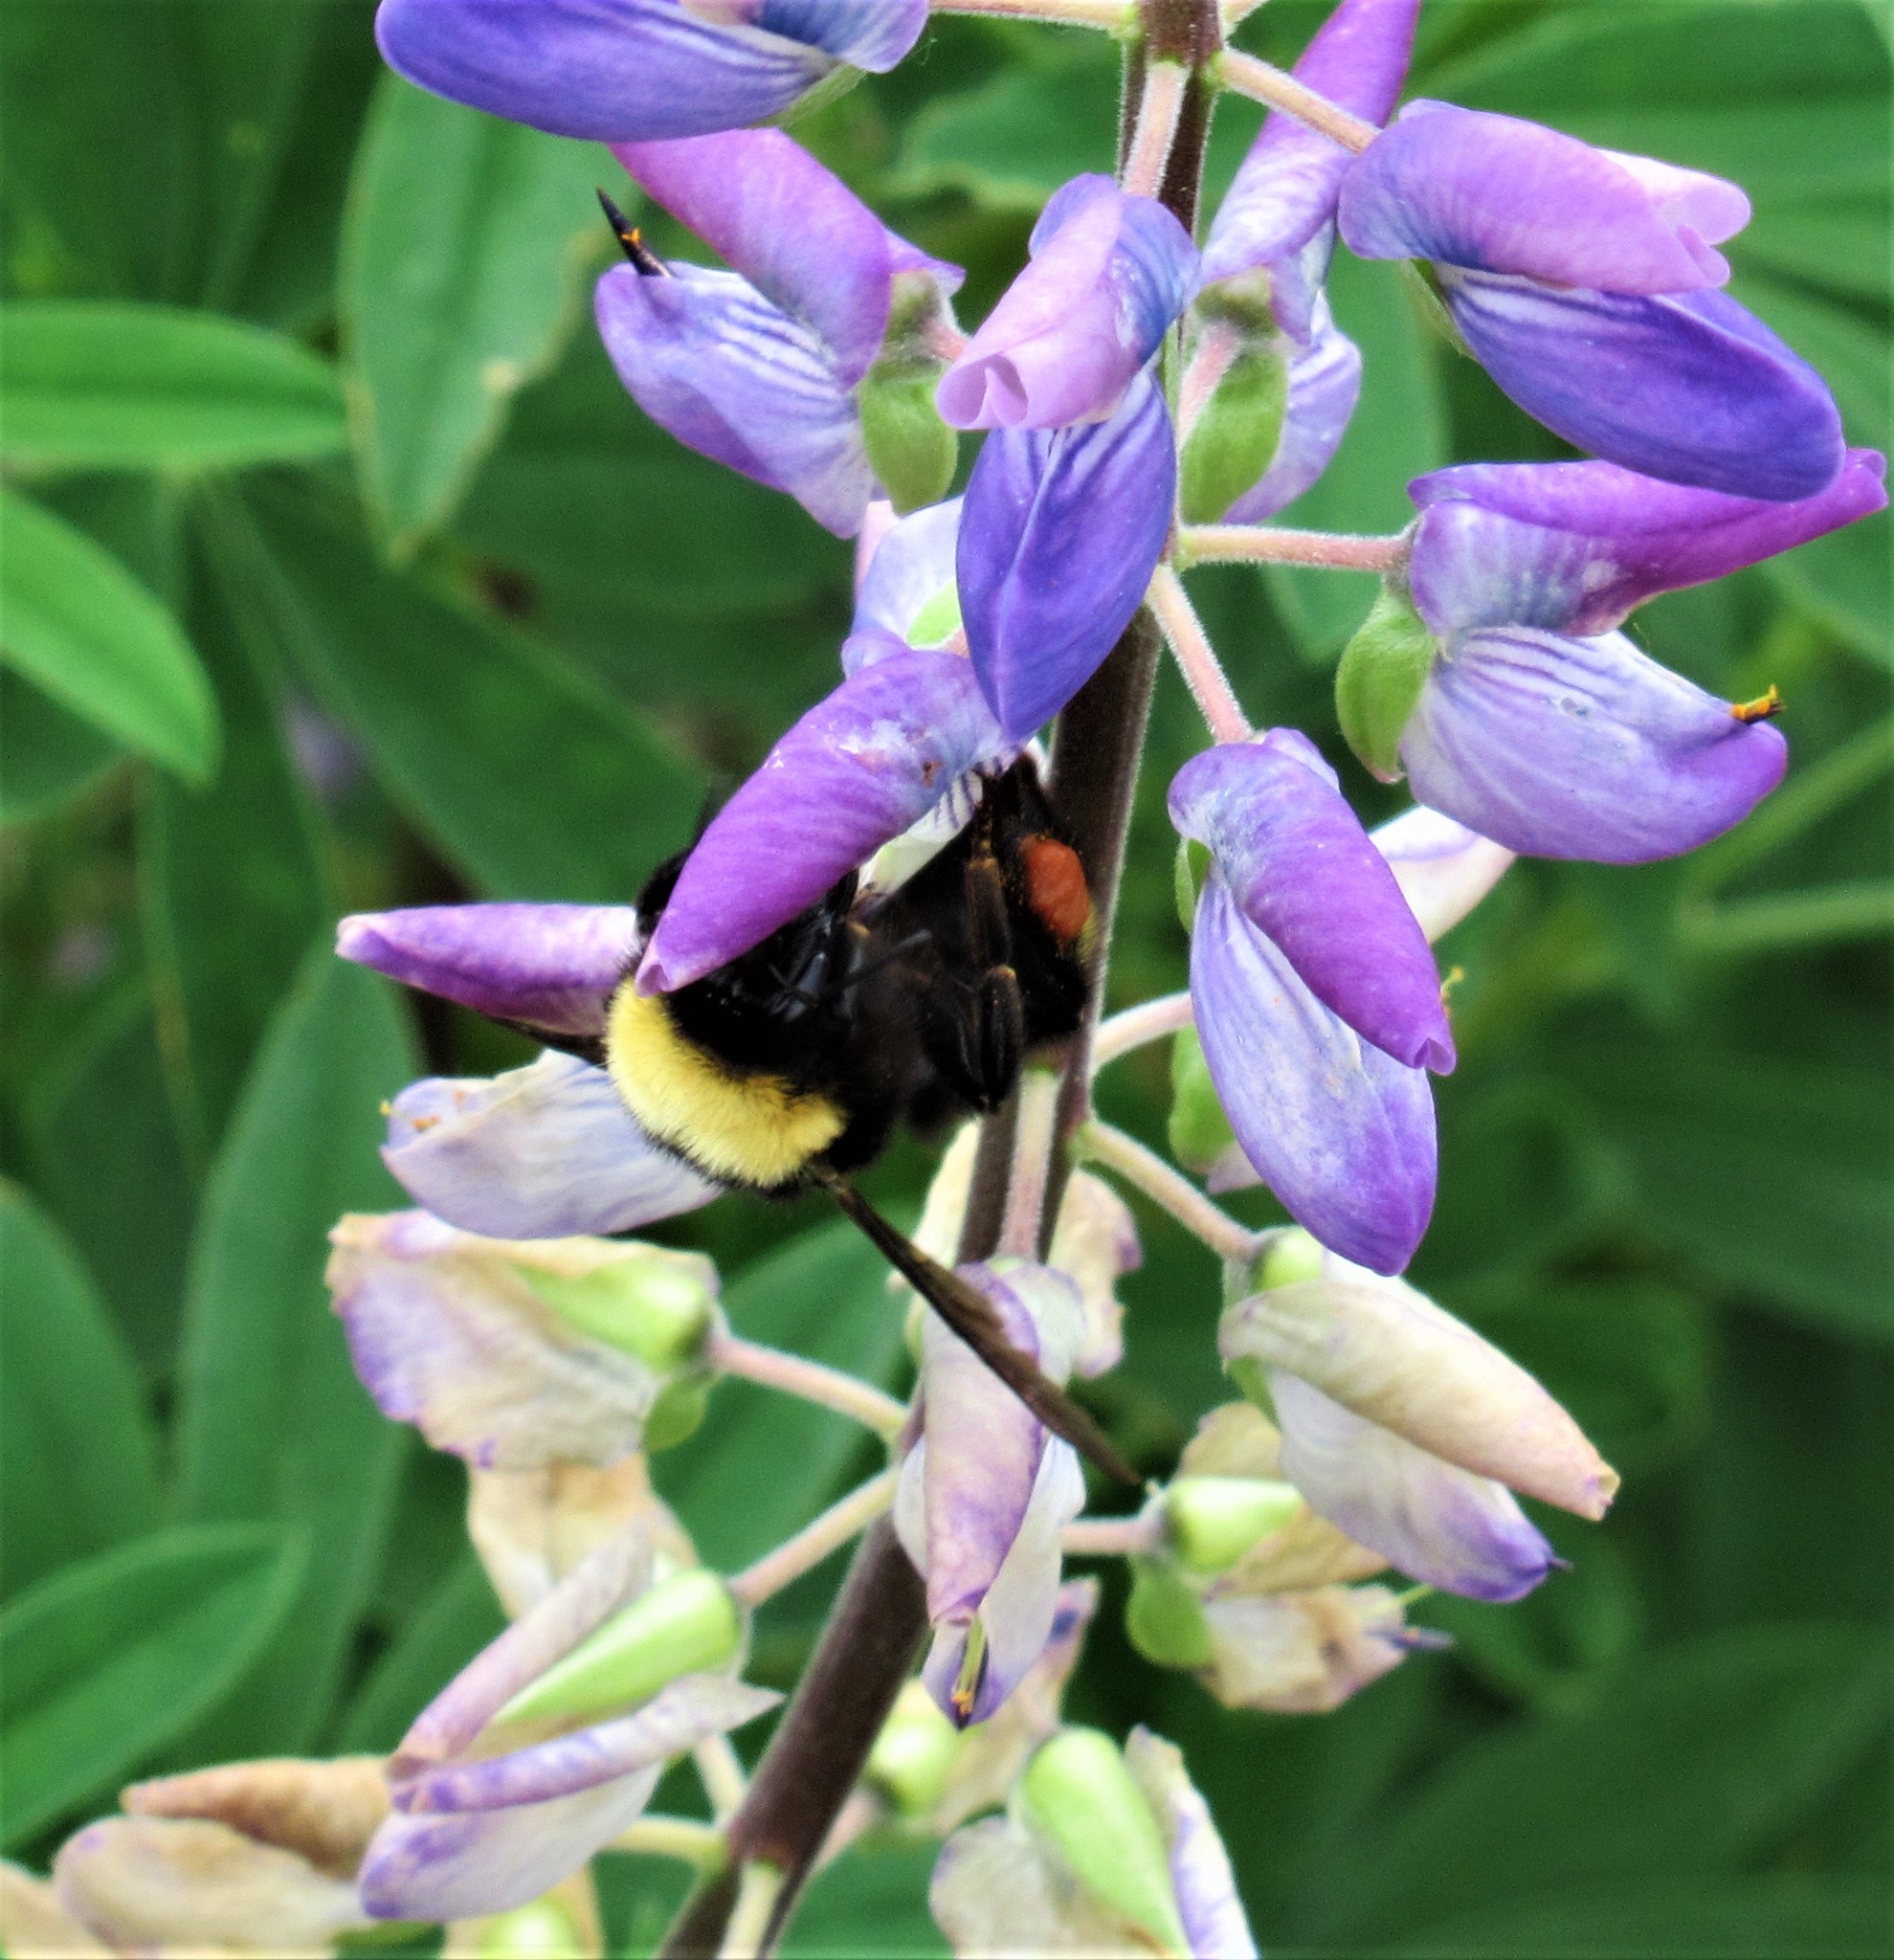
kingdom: Animalia
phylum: Arthropoda
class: Insecta
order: Hymenoptera
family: Apidae
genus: Bombus
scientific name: Bombus californicus
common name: California bumble bee
